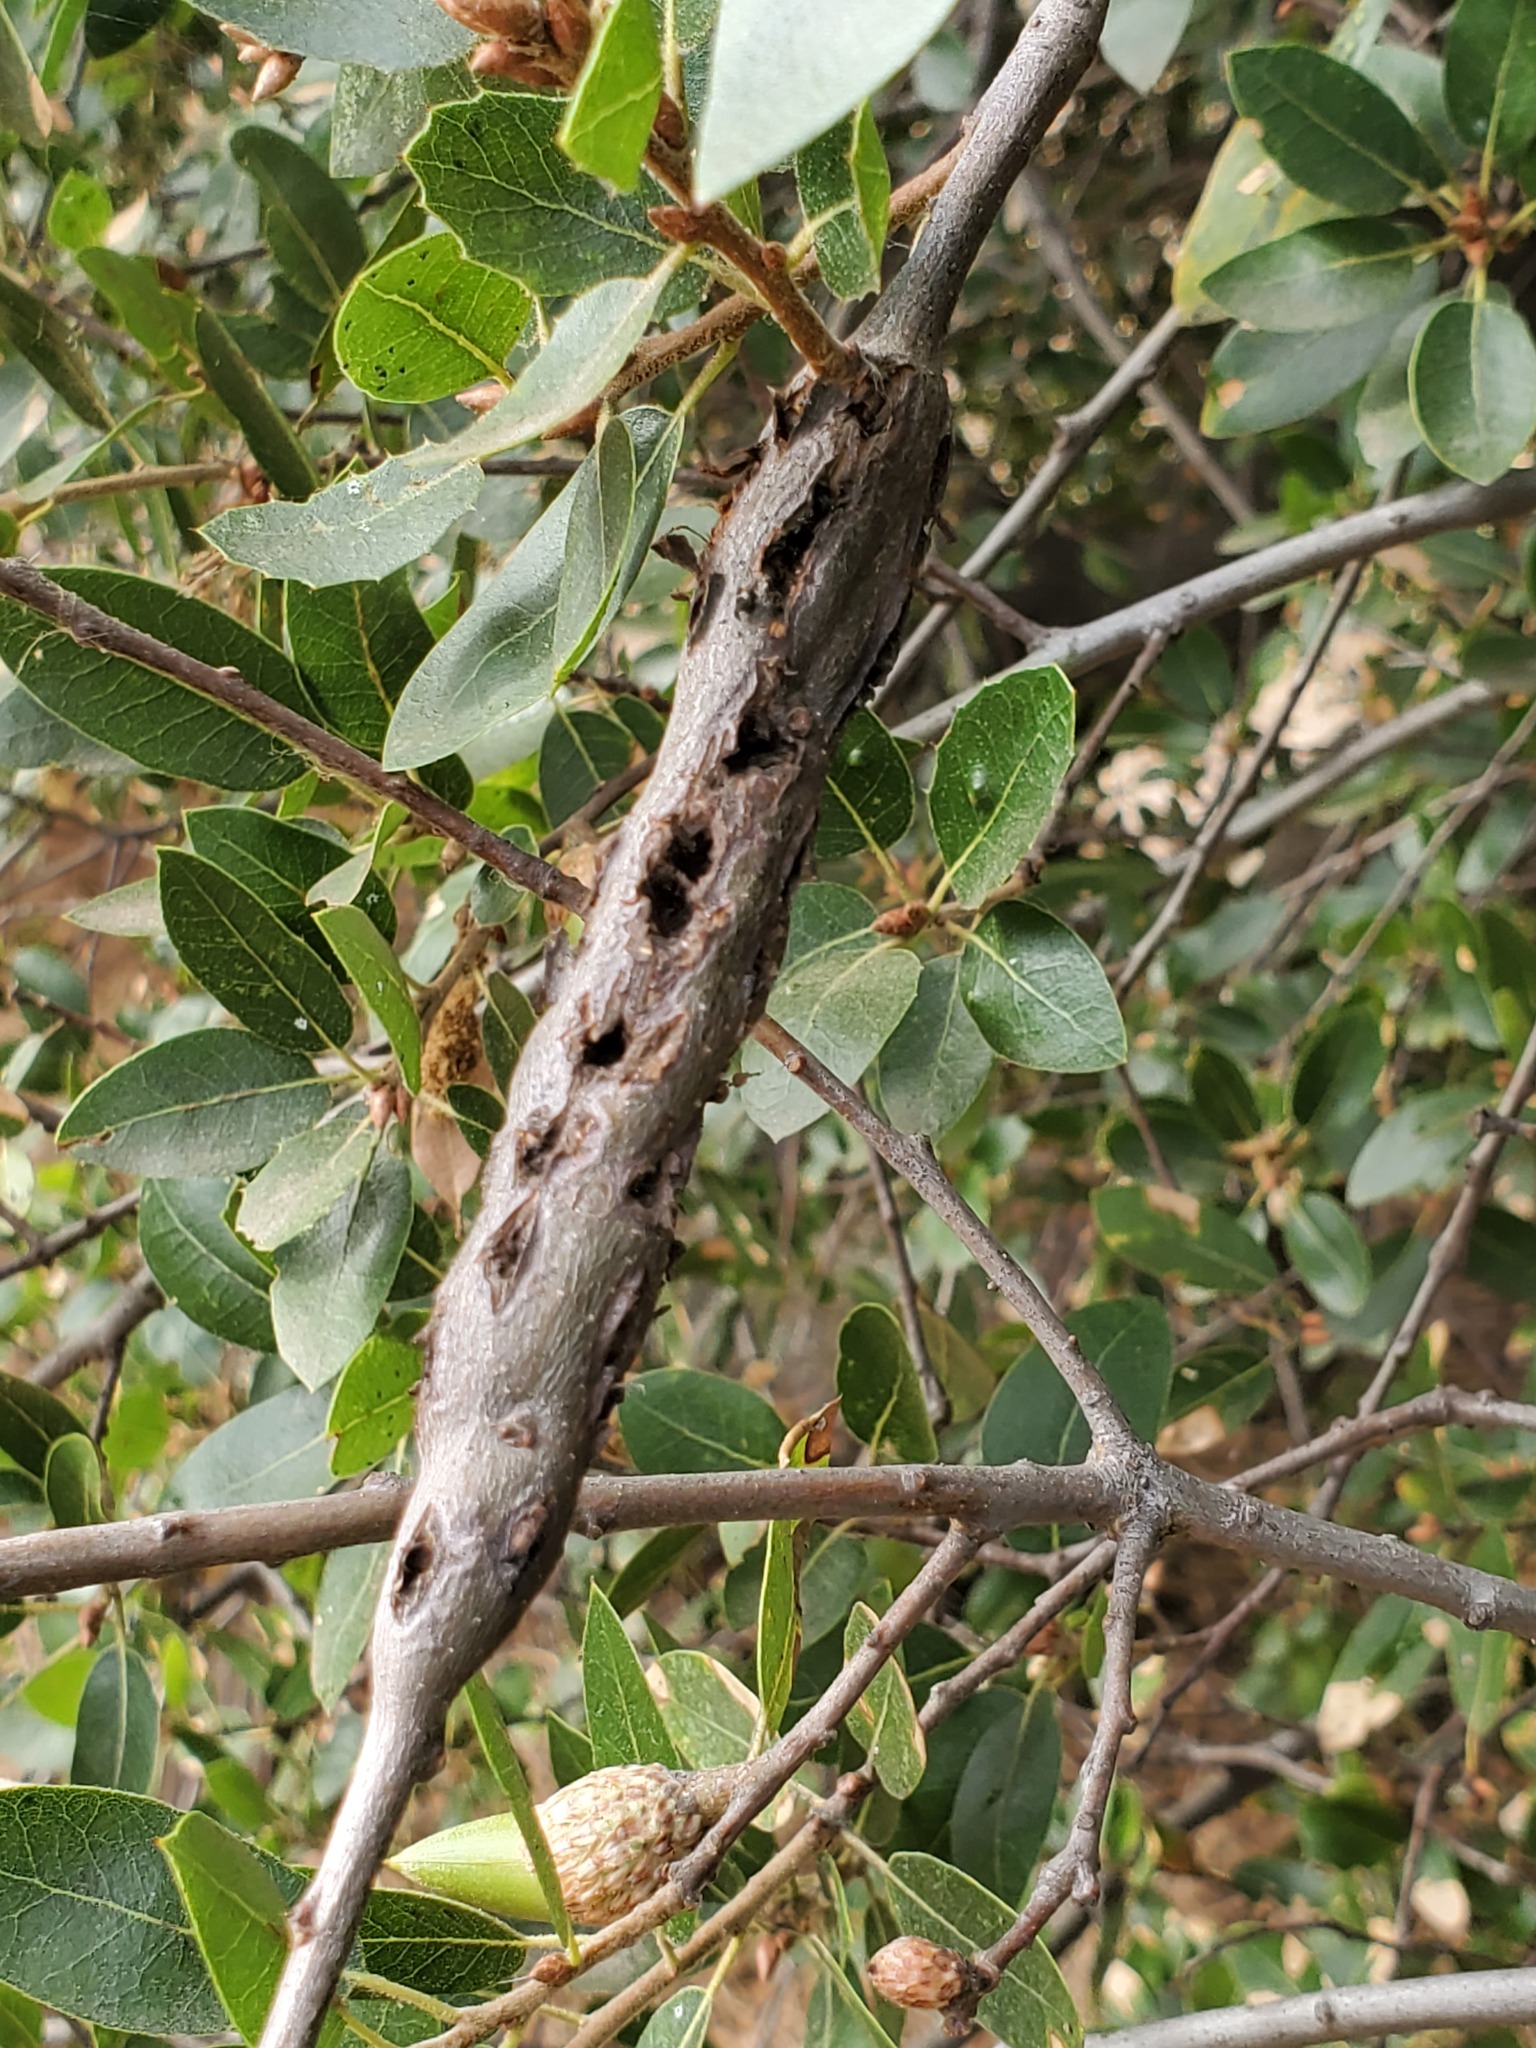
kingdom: Animalia
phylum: Arthropoda
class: Insecta
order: Hymenoptera
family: Cynipidae
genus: Callirhytis
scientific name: Callirhytis
